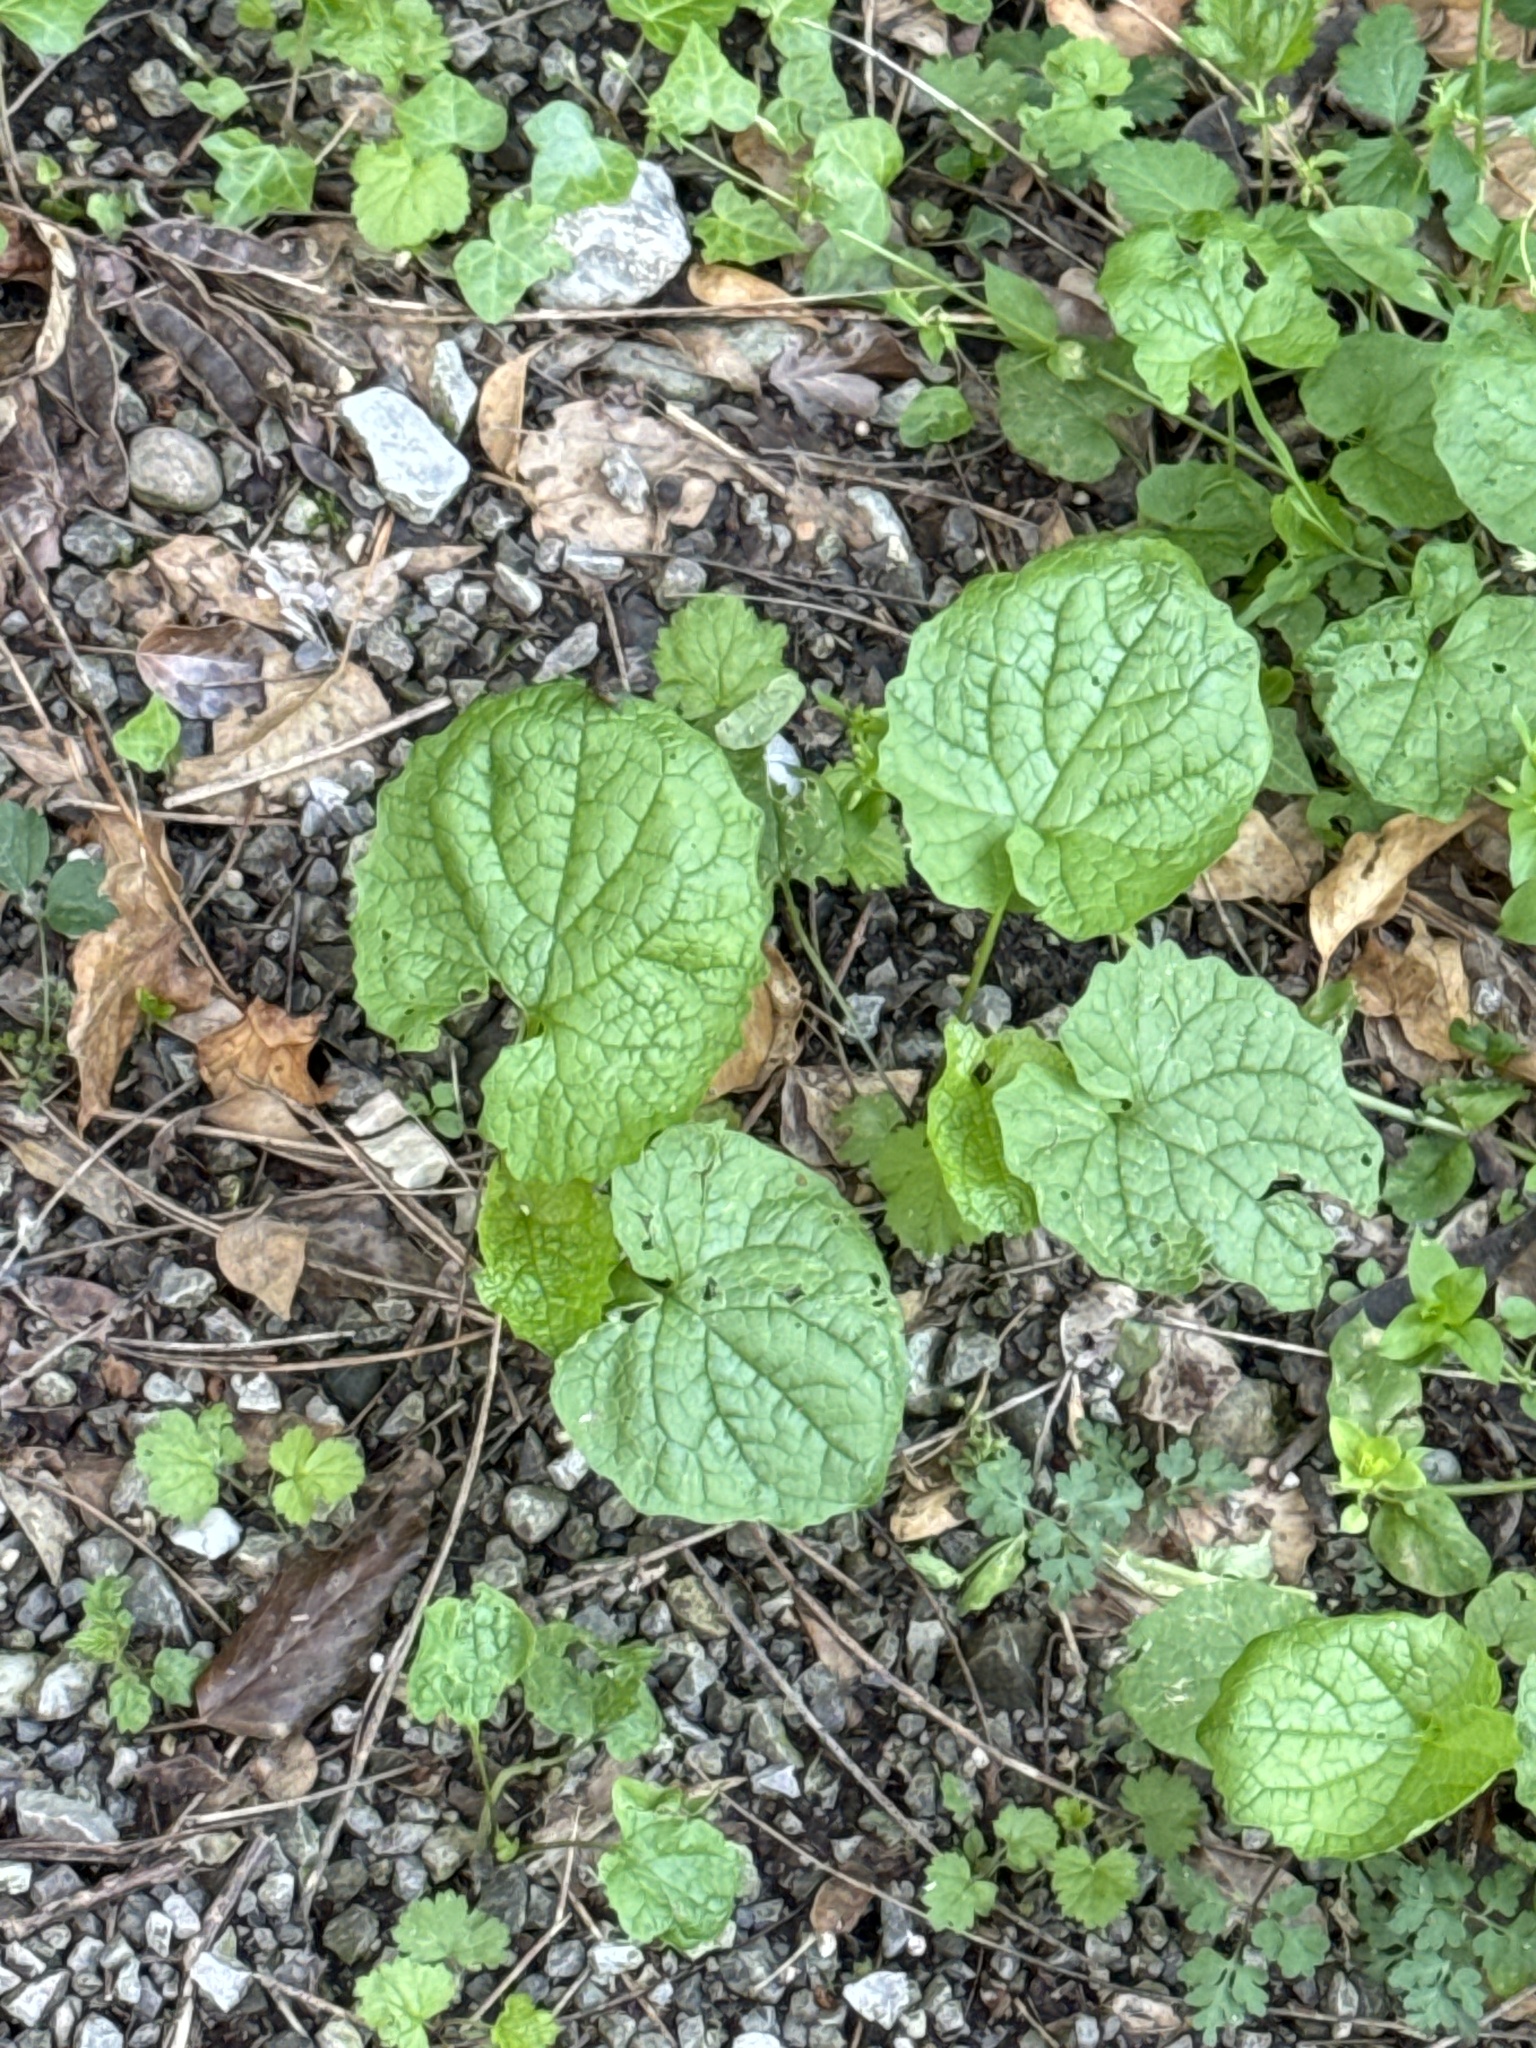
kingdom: Plantae
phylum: Tracheophyta
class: Magnoliopsida
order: Brassicales
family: Brassicaceae
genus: Alliaria
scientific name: Alliaria petiolata
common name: Garlic mustard
